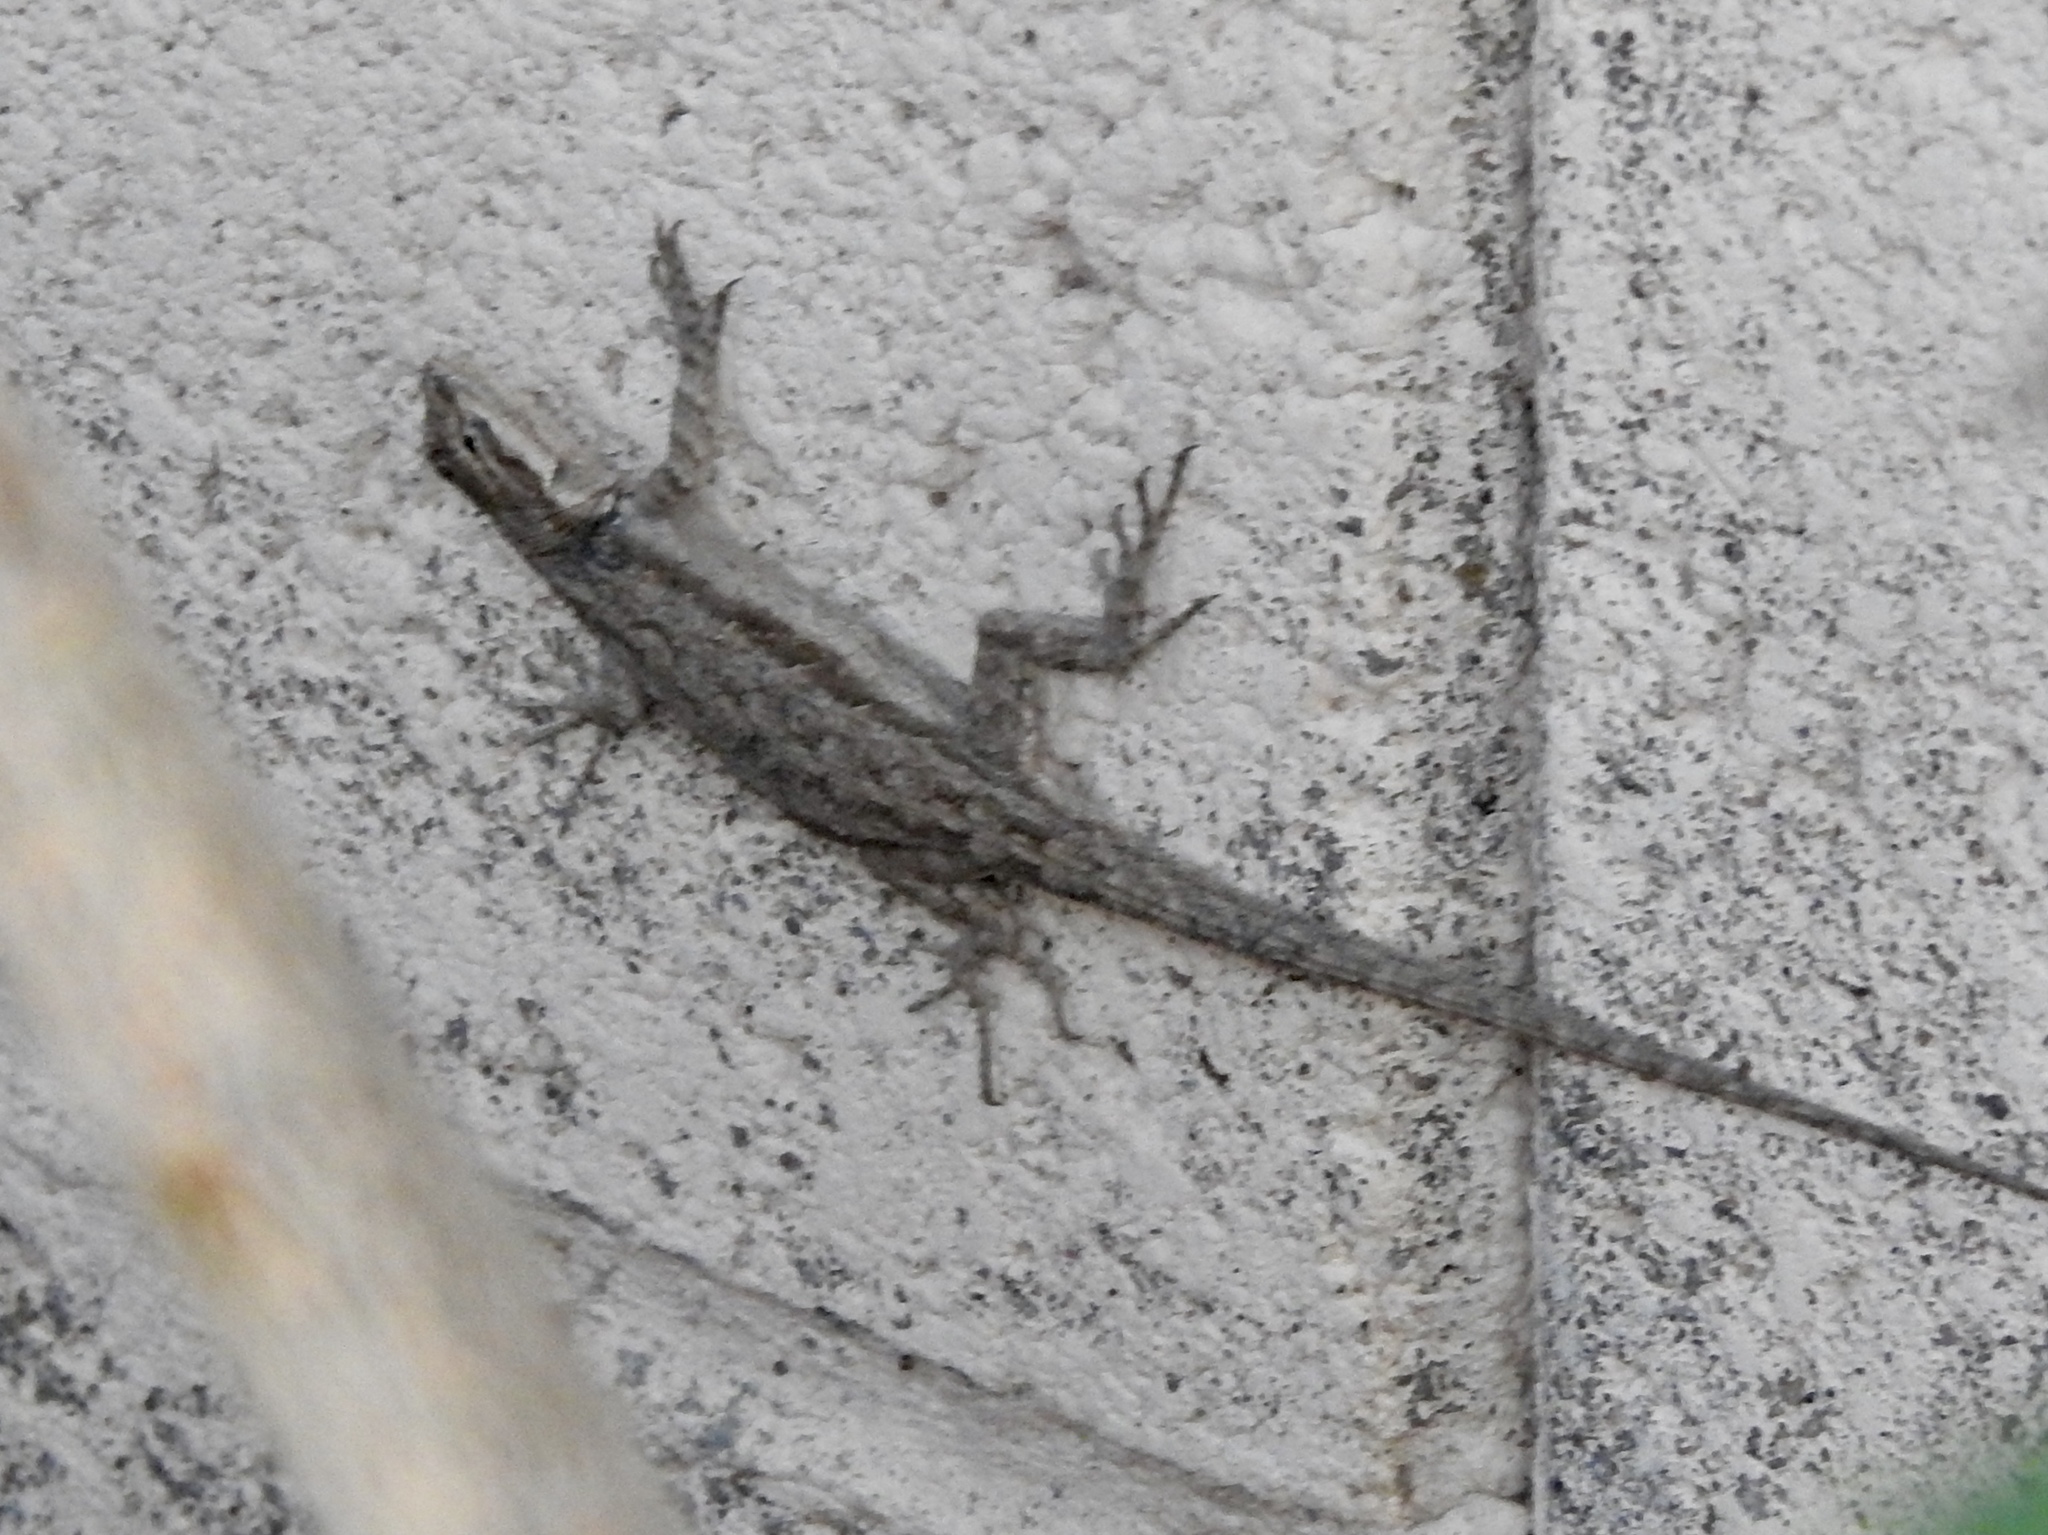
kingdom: Animalia
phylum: Chordata
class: Squamata
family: Phrynosomatidae
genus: Urosaurus
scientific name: Urosaurus ornatus
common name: Ornate tree lizard
